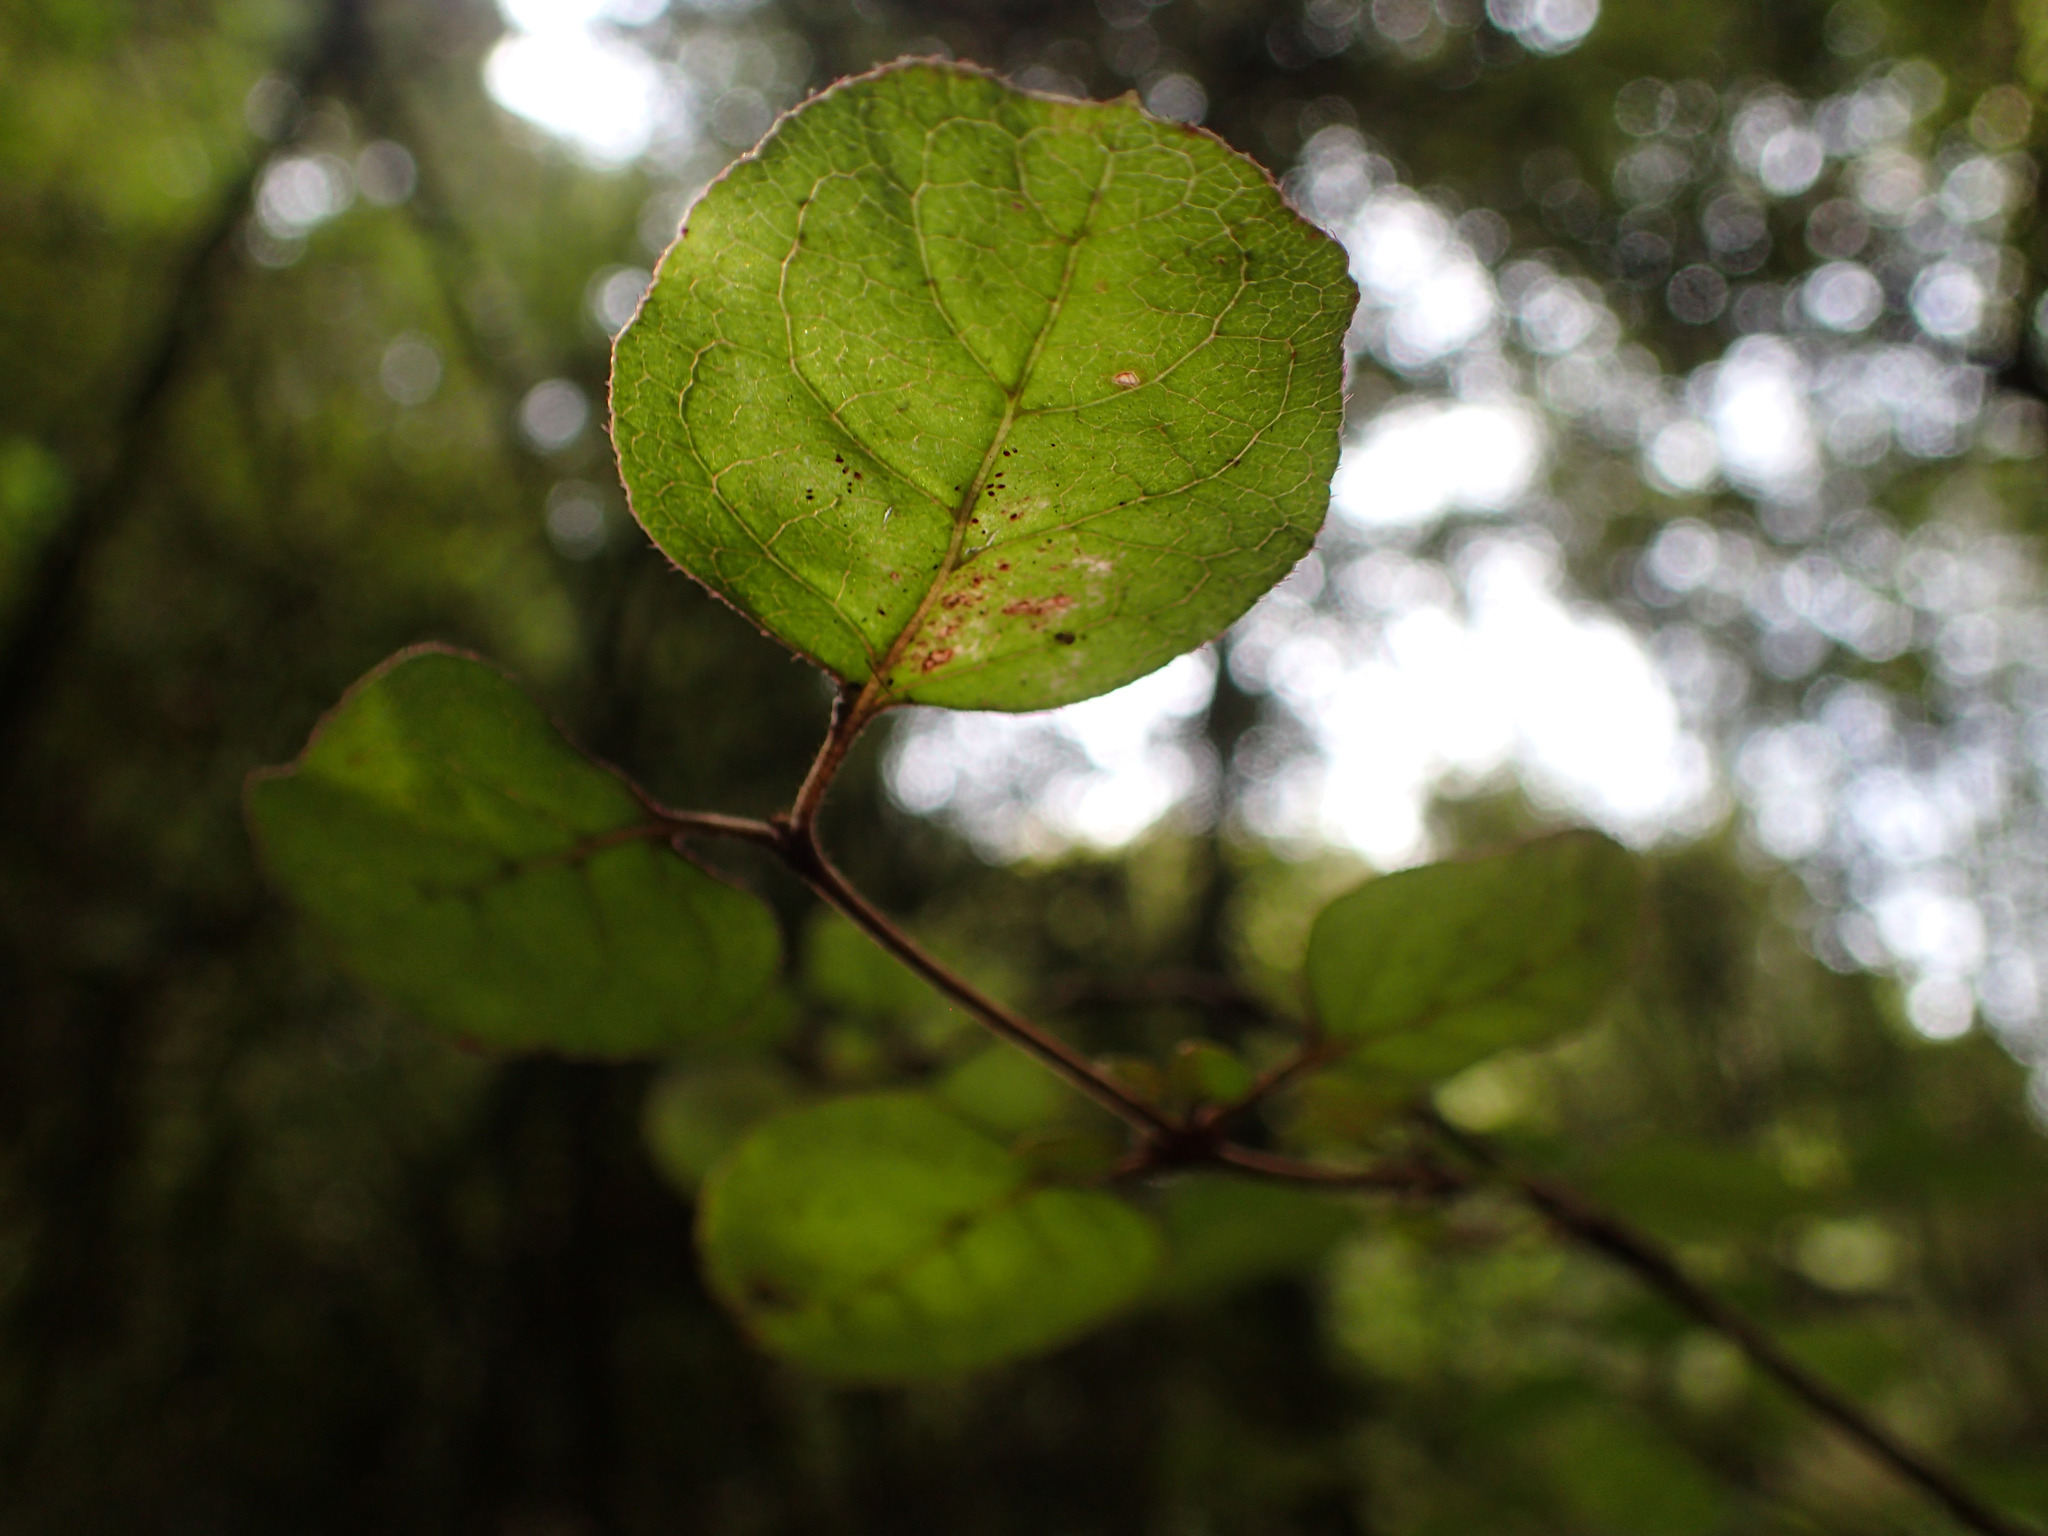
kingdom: Plantae
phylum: Tracheophyta
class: Magnoliopsida
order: Gentianales
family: Rubiaceae
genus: Coprosma
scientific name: Coprosma rotundifolia
